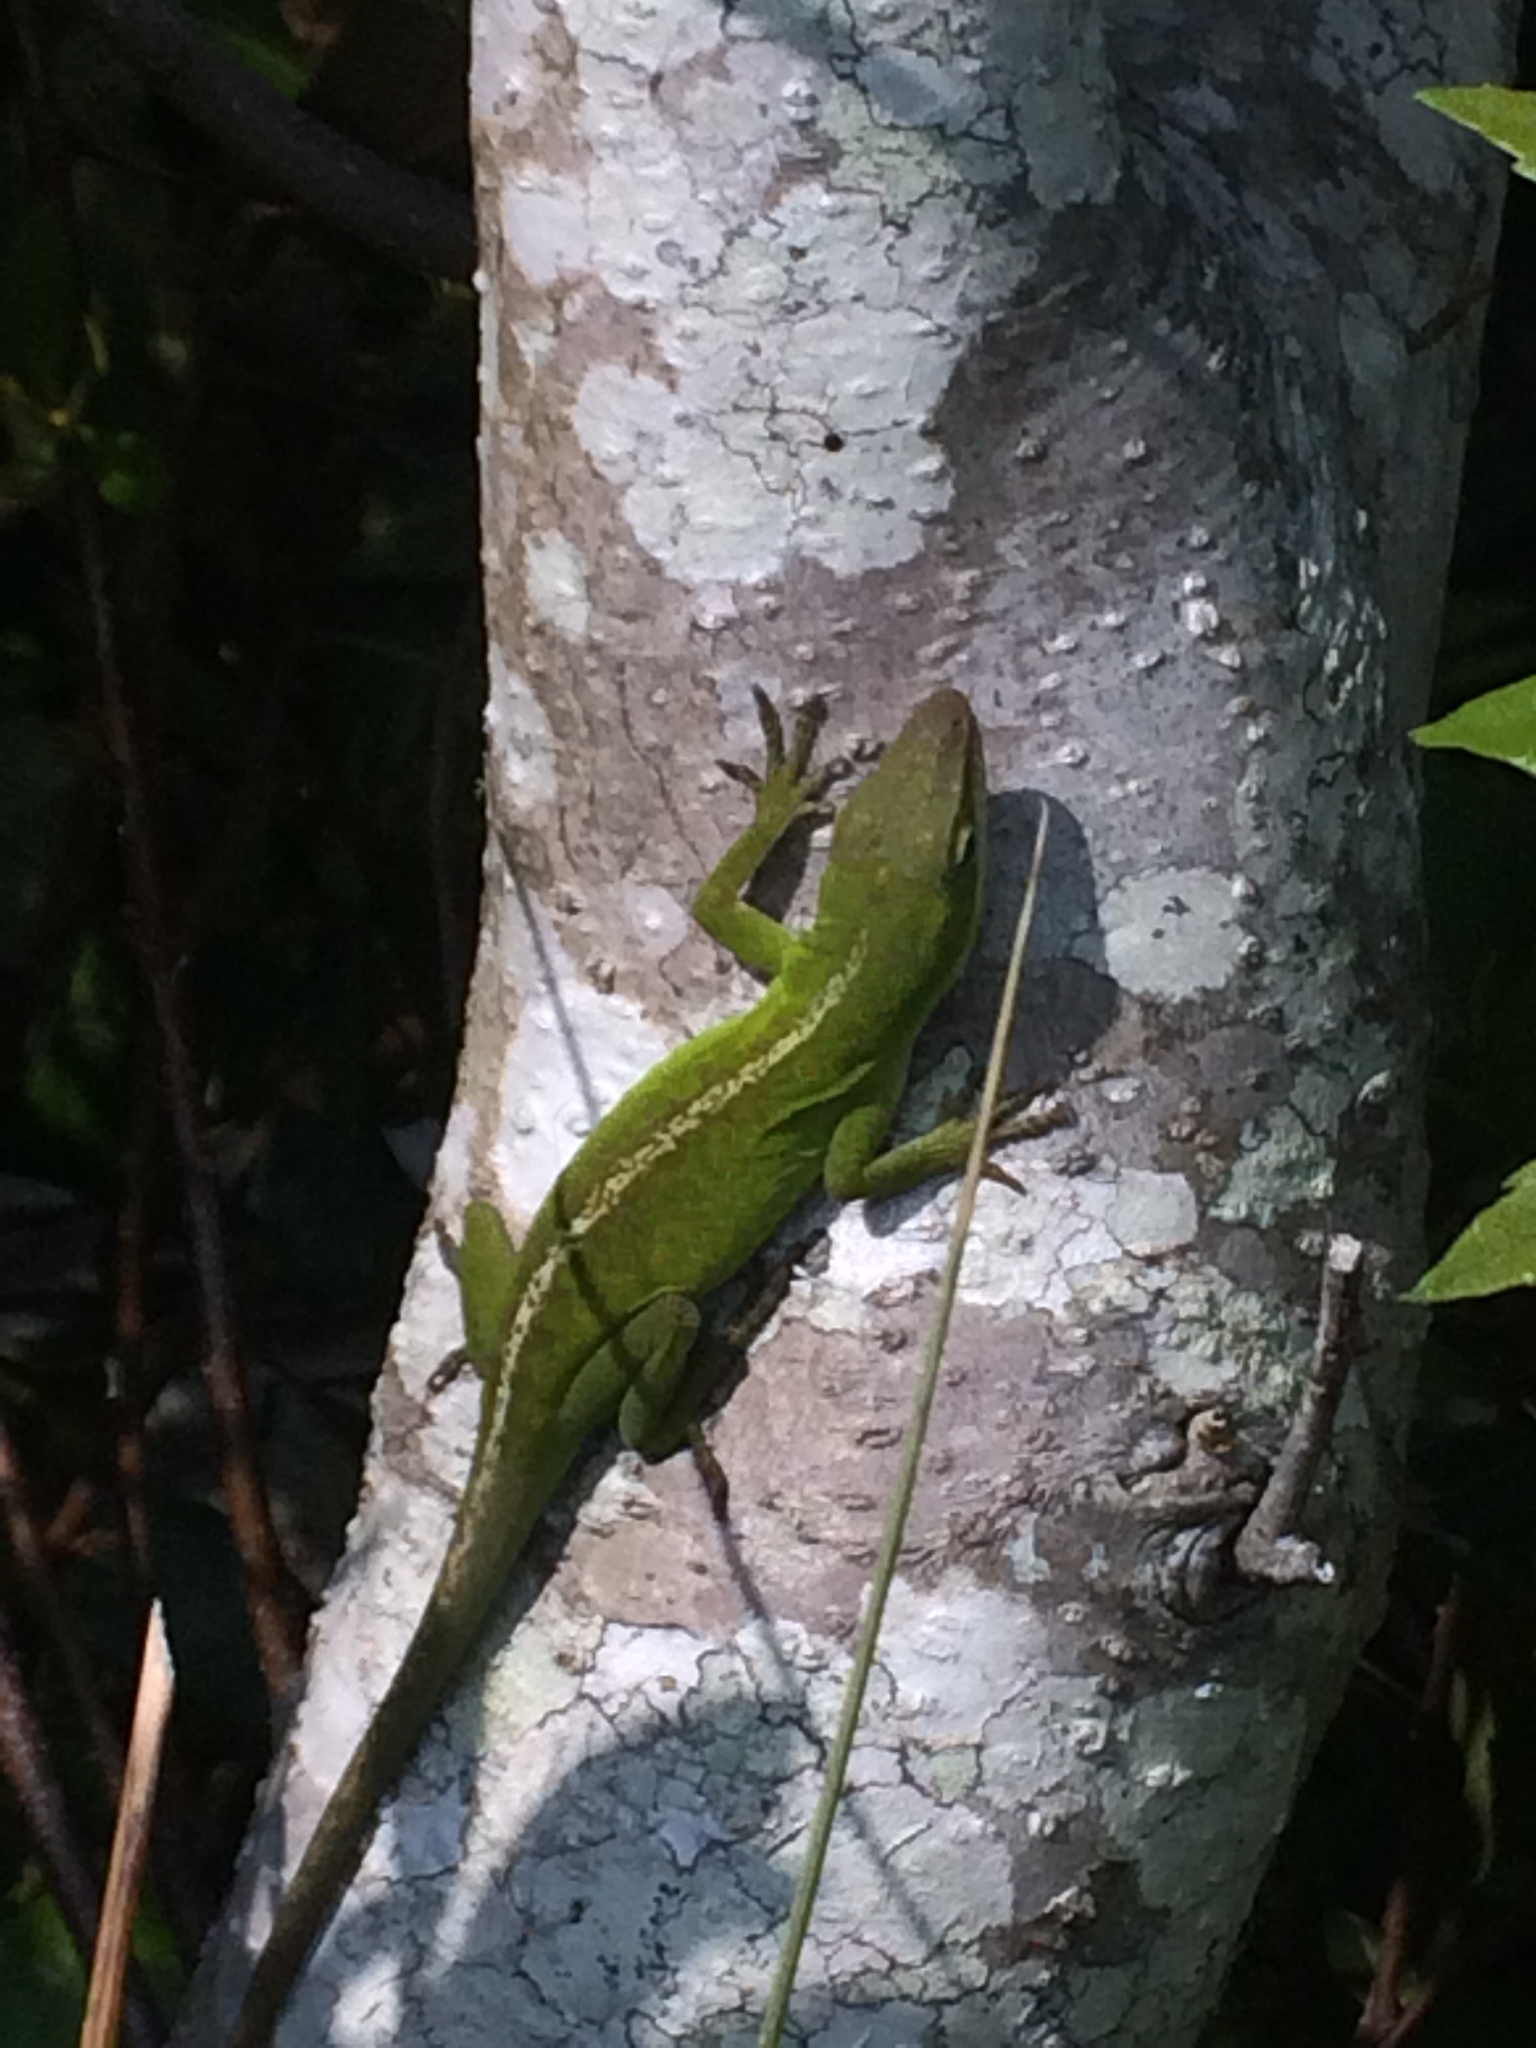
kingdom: Animalia
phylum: Chordata
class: Squamata
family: Dactyloidae
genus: Anolis
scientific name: Anolis carolinensis
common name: Green anole
